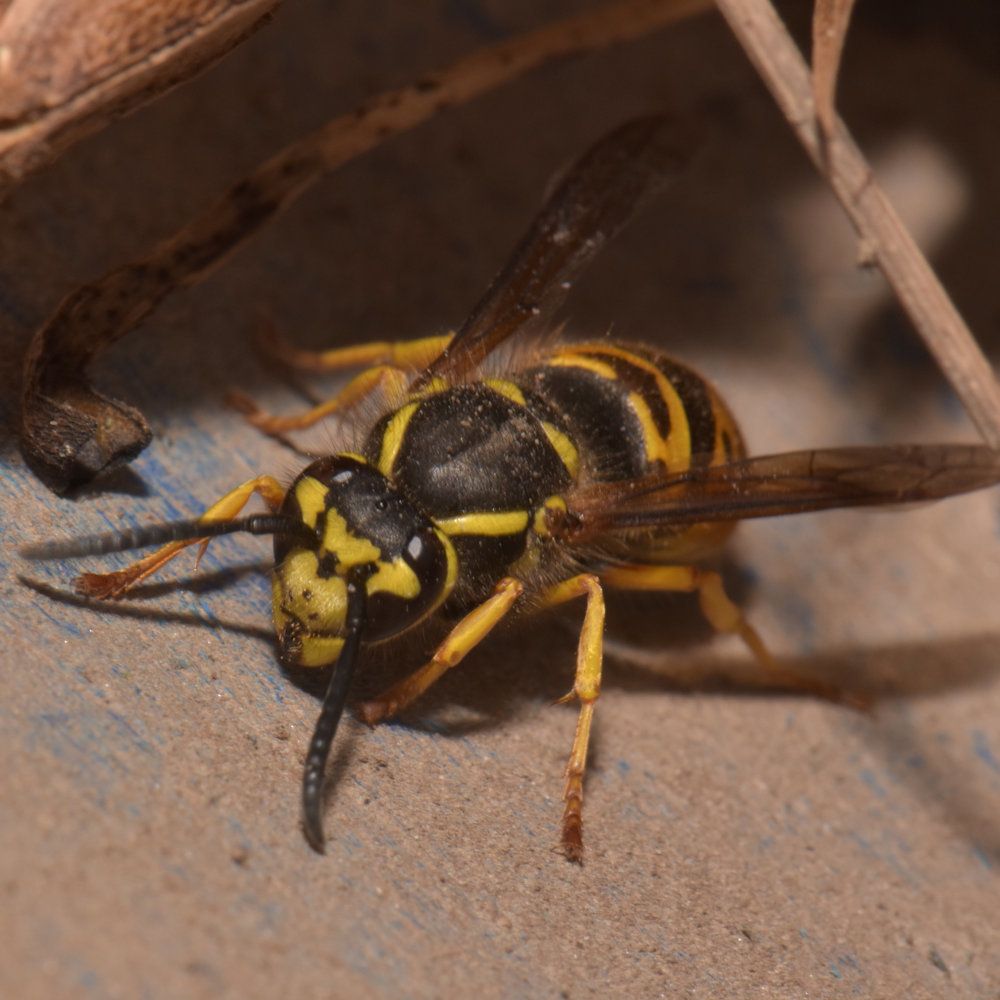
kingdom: Animalia
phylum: Arthropoda
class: Insecta
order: Hymenoptera
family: Vespidae
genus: Vespula
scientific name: Vespula maculifrons
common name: Eastern yellowjacket
